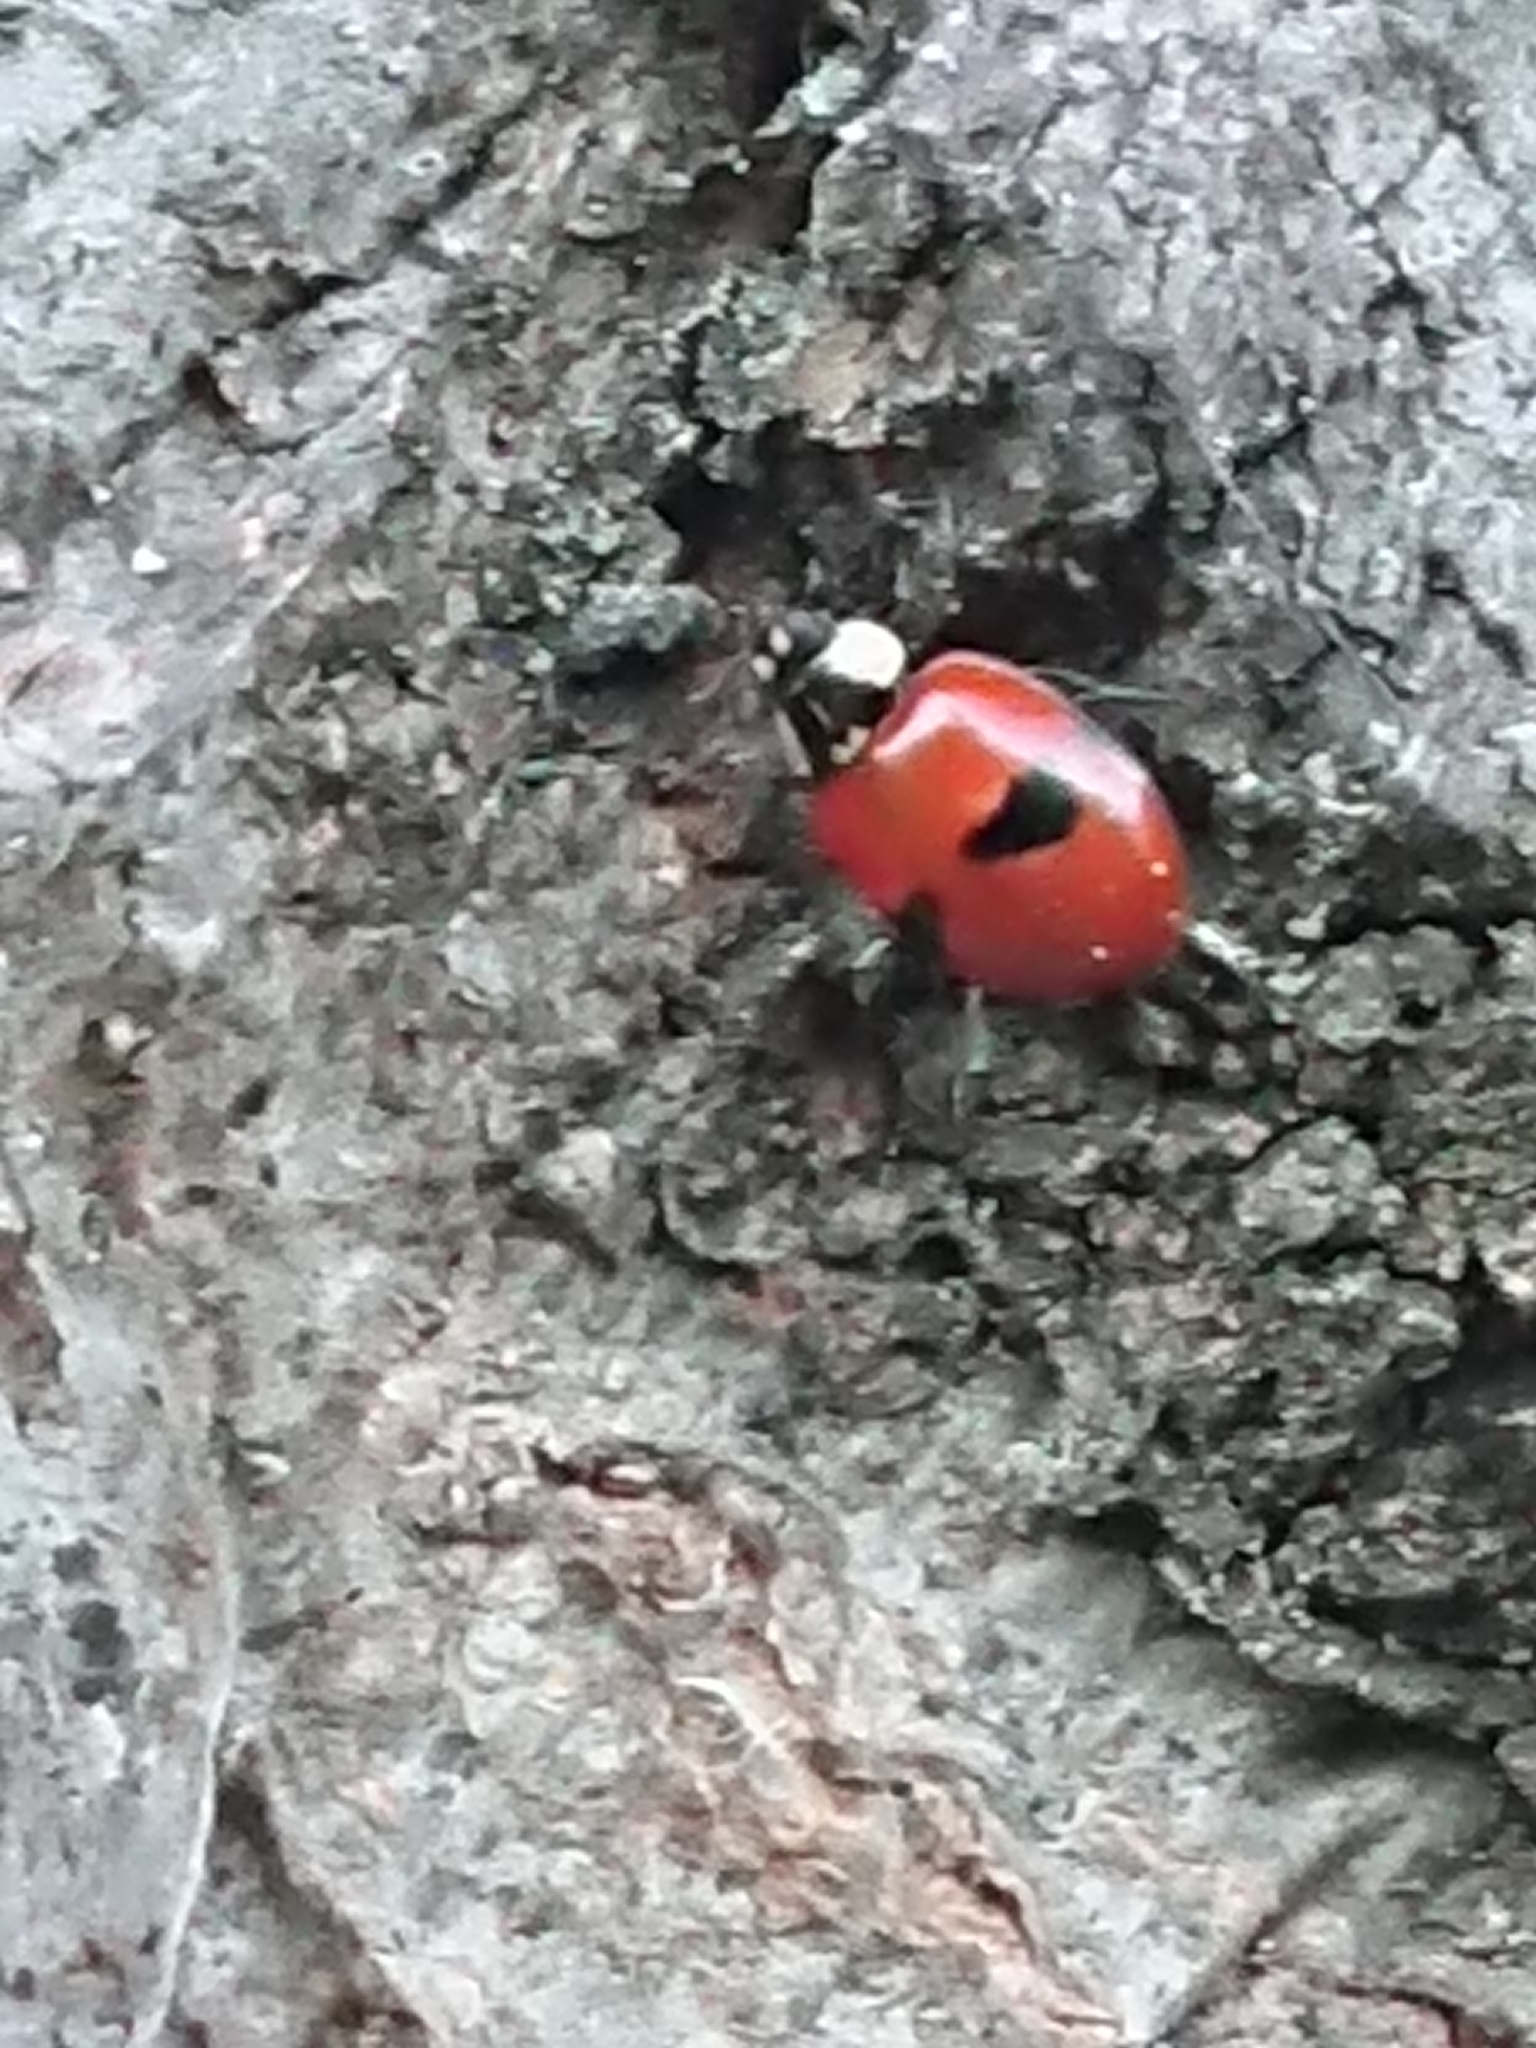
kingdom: Animalia
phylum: Arthropoda
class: Insecta
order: Coleoptera
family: Coccinellidae
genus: Adalia
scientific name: Adalia bipunctata
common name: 2-spot ladybird
